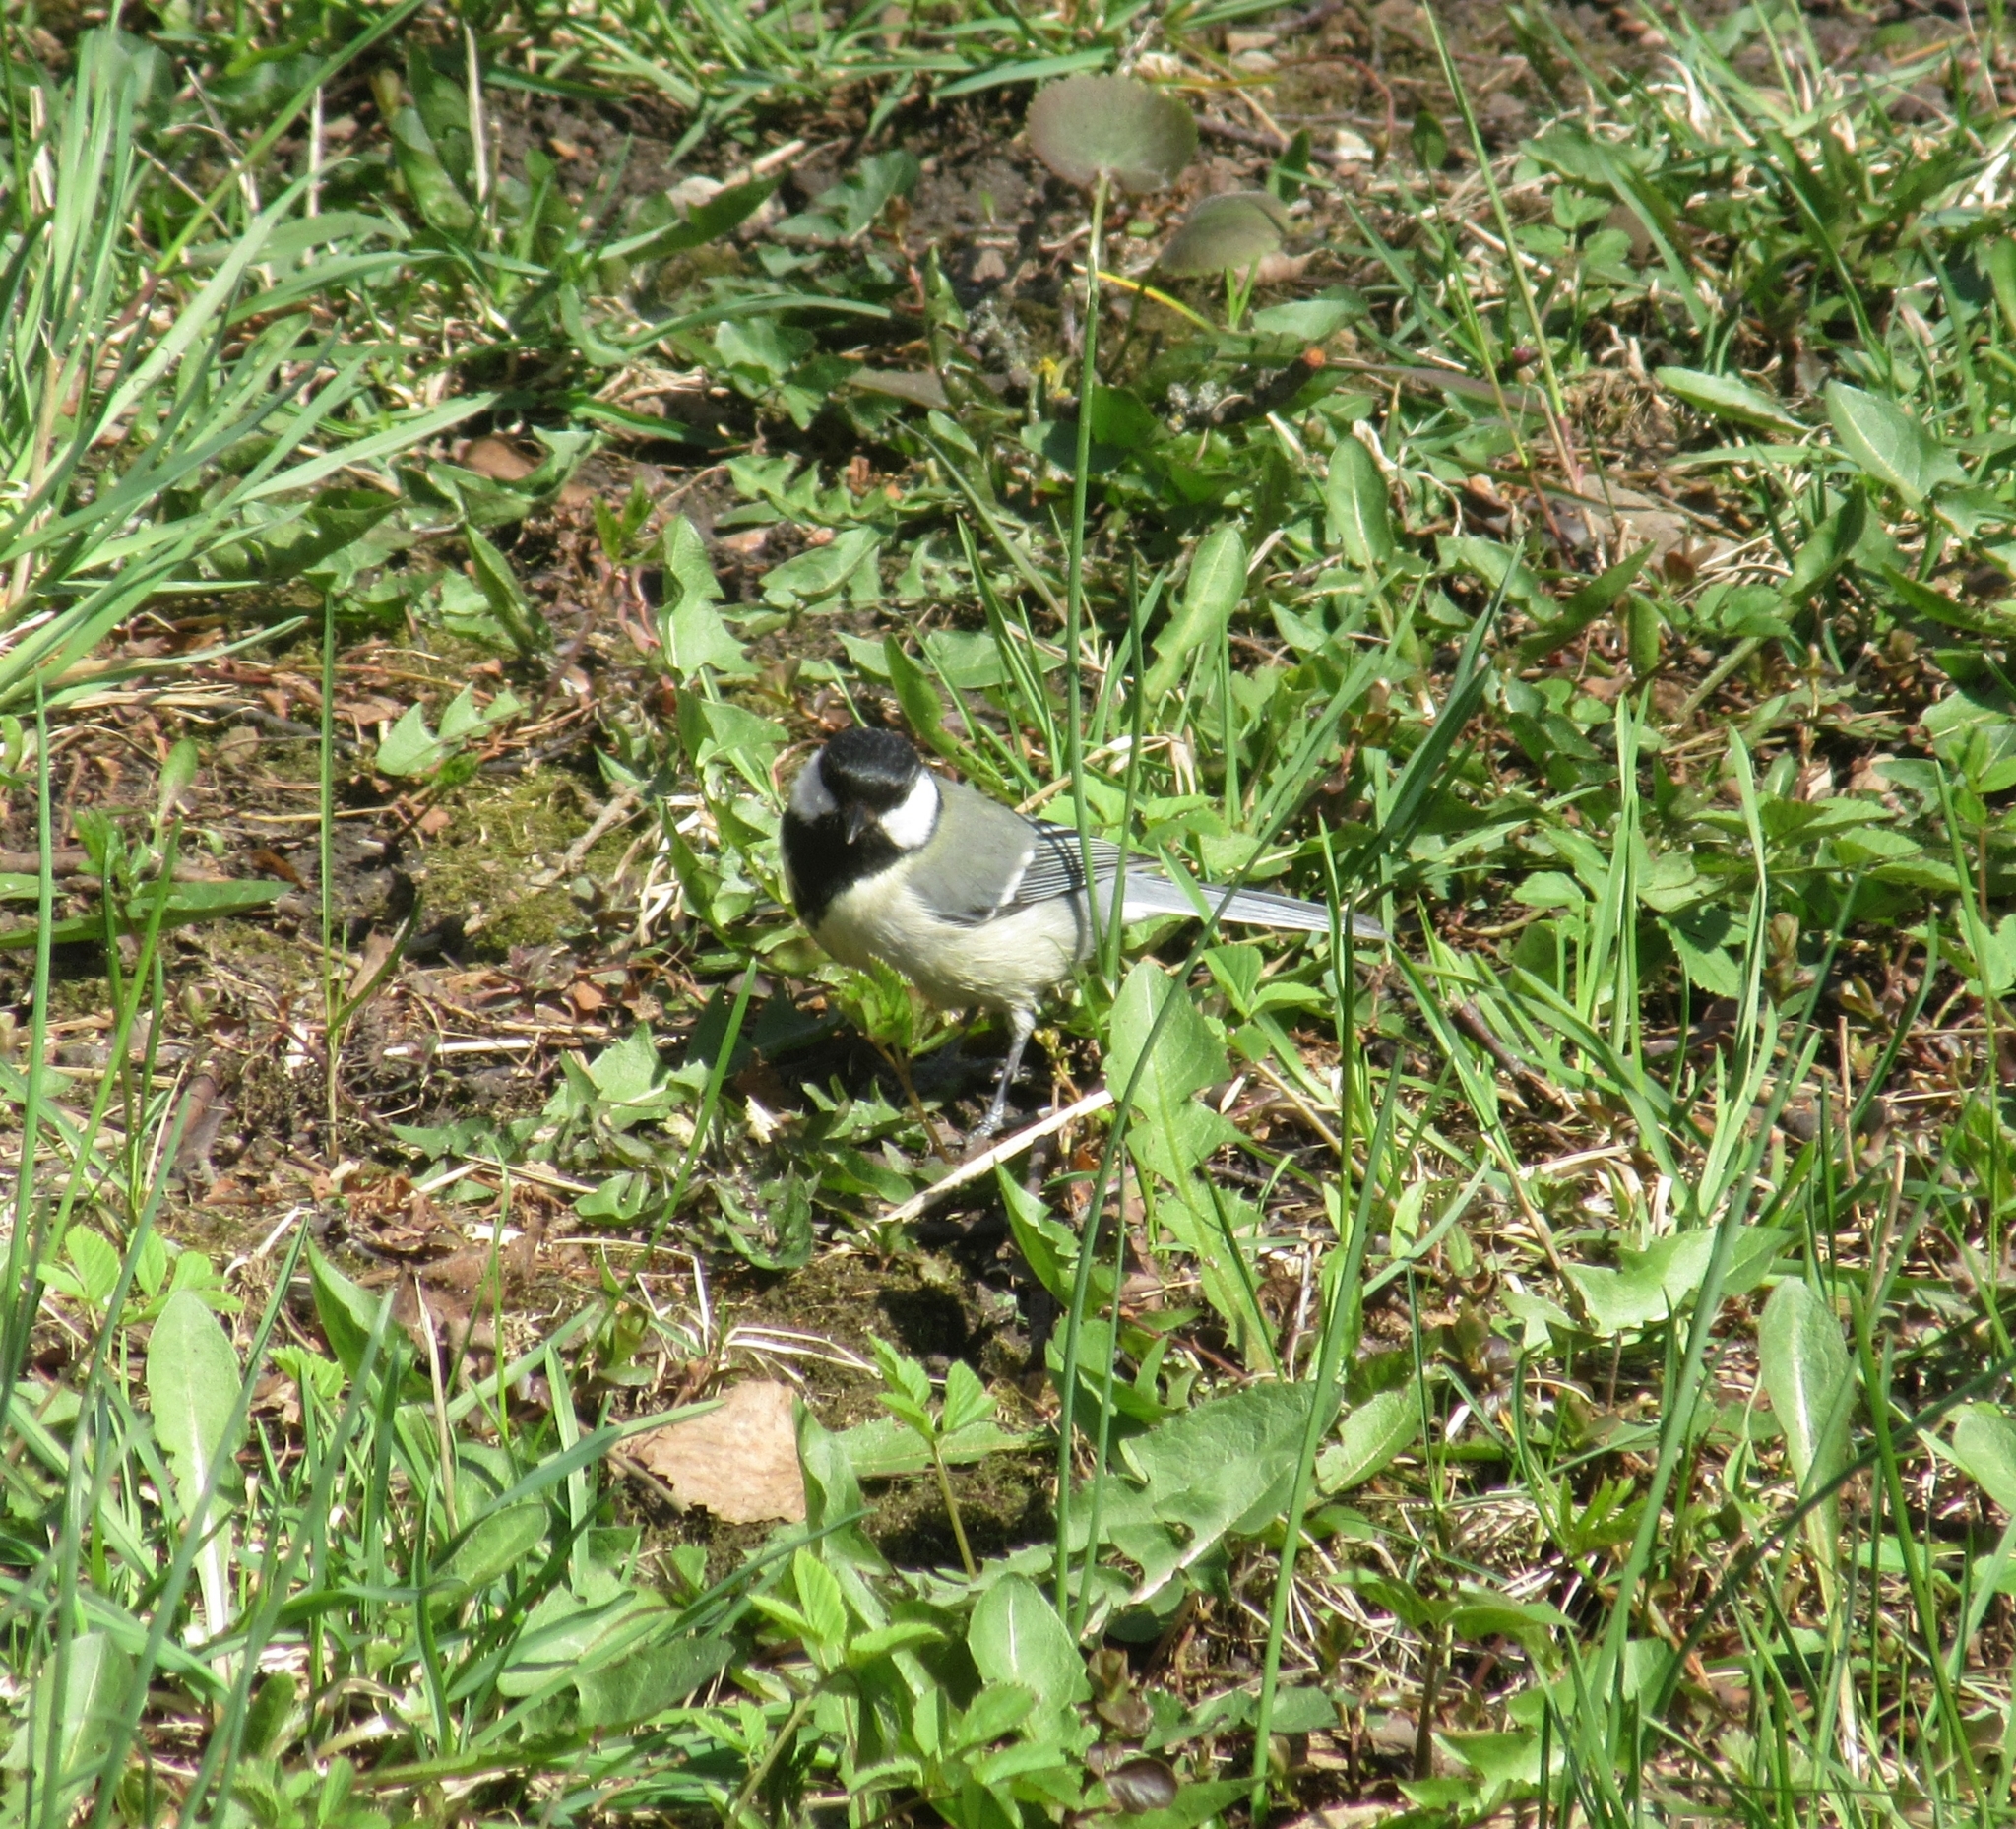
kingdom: Animalia
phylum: Chordata
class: Aves
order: Passeriformes
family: Paridae
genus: Parus
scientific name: Parus major
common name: Great tit
